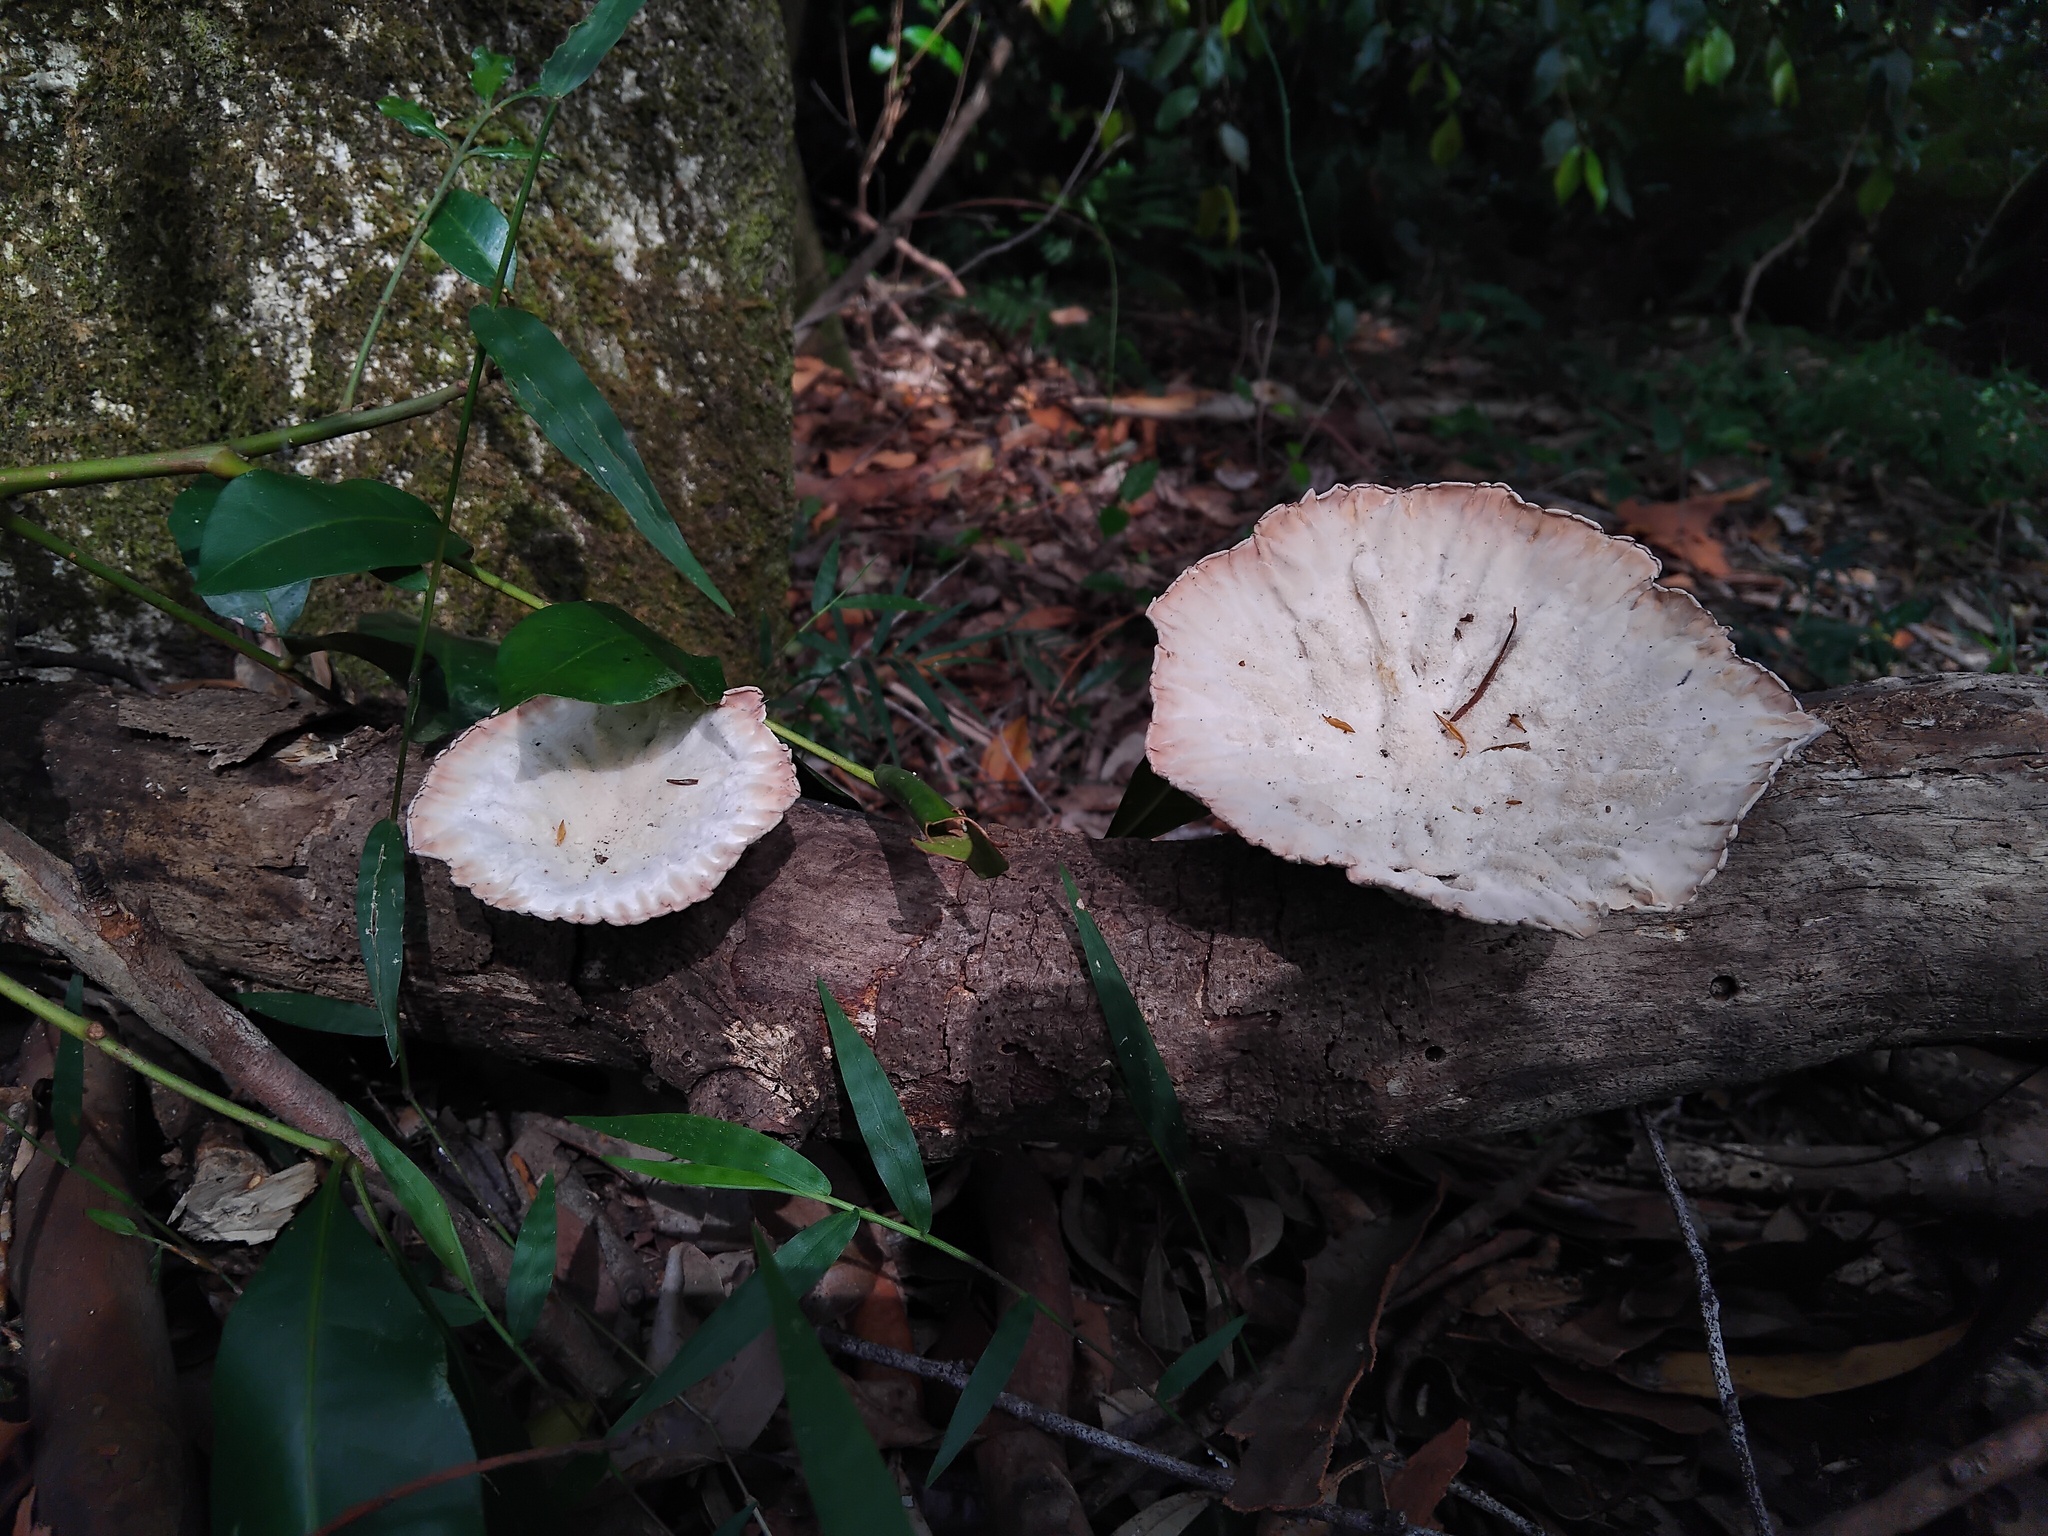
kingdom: Fungi
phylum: Basidiomycota
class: Agaricomycetes
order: Polyporales
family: Panaceae
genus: Cymatoderma
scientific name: Cymatoderma elegans
